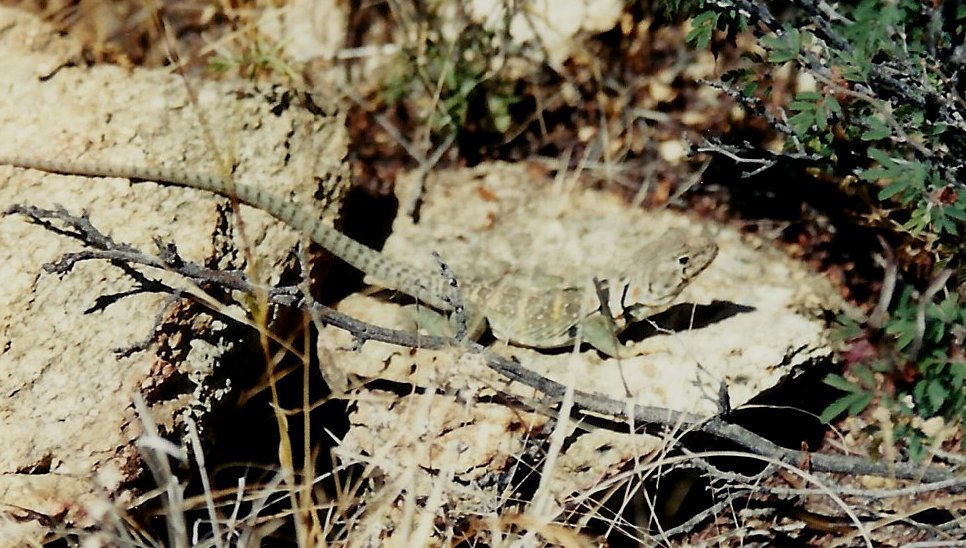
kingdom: Animalia
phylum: Chordata
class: Squamata
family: Crotaphytidae
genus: Crotaphytus
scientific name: Crotaphytus collaris
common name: Collared lizard
